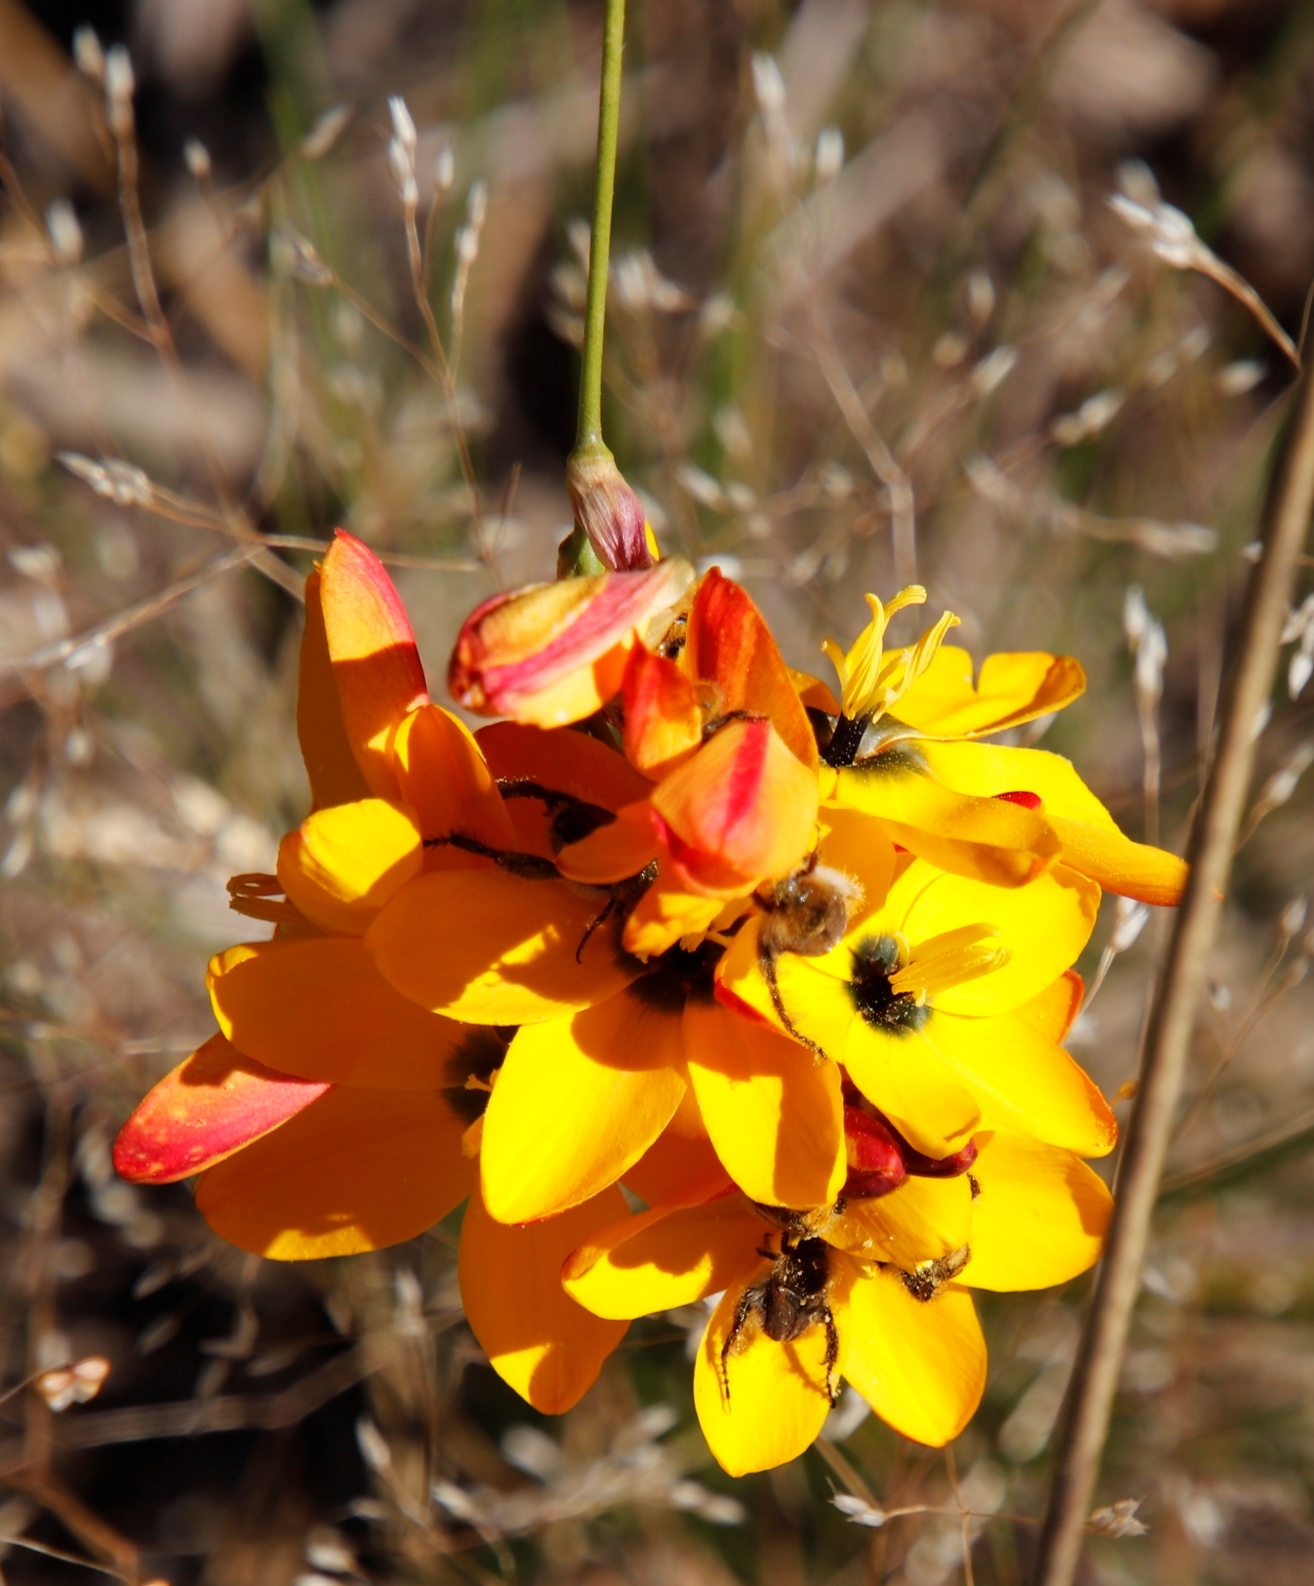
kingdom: Plantae
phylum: Tracheophyta
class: Liliopsida
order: Asparagales
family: Iridaceae
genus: Ixia
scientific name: Ixia dubia
